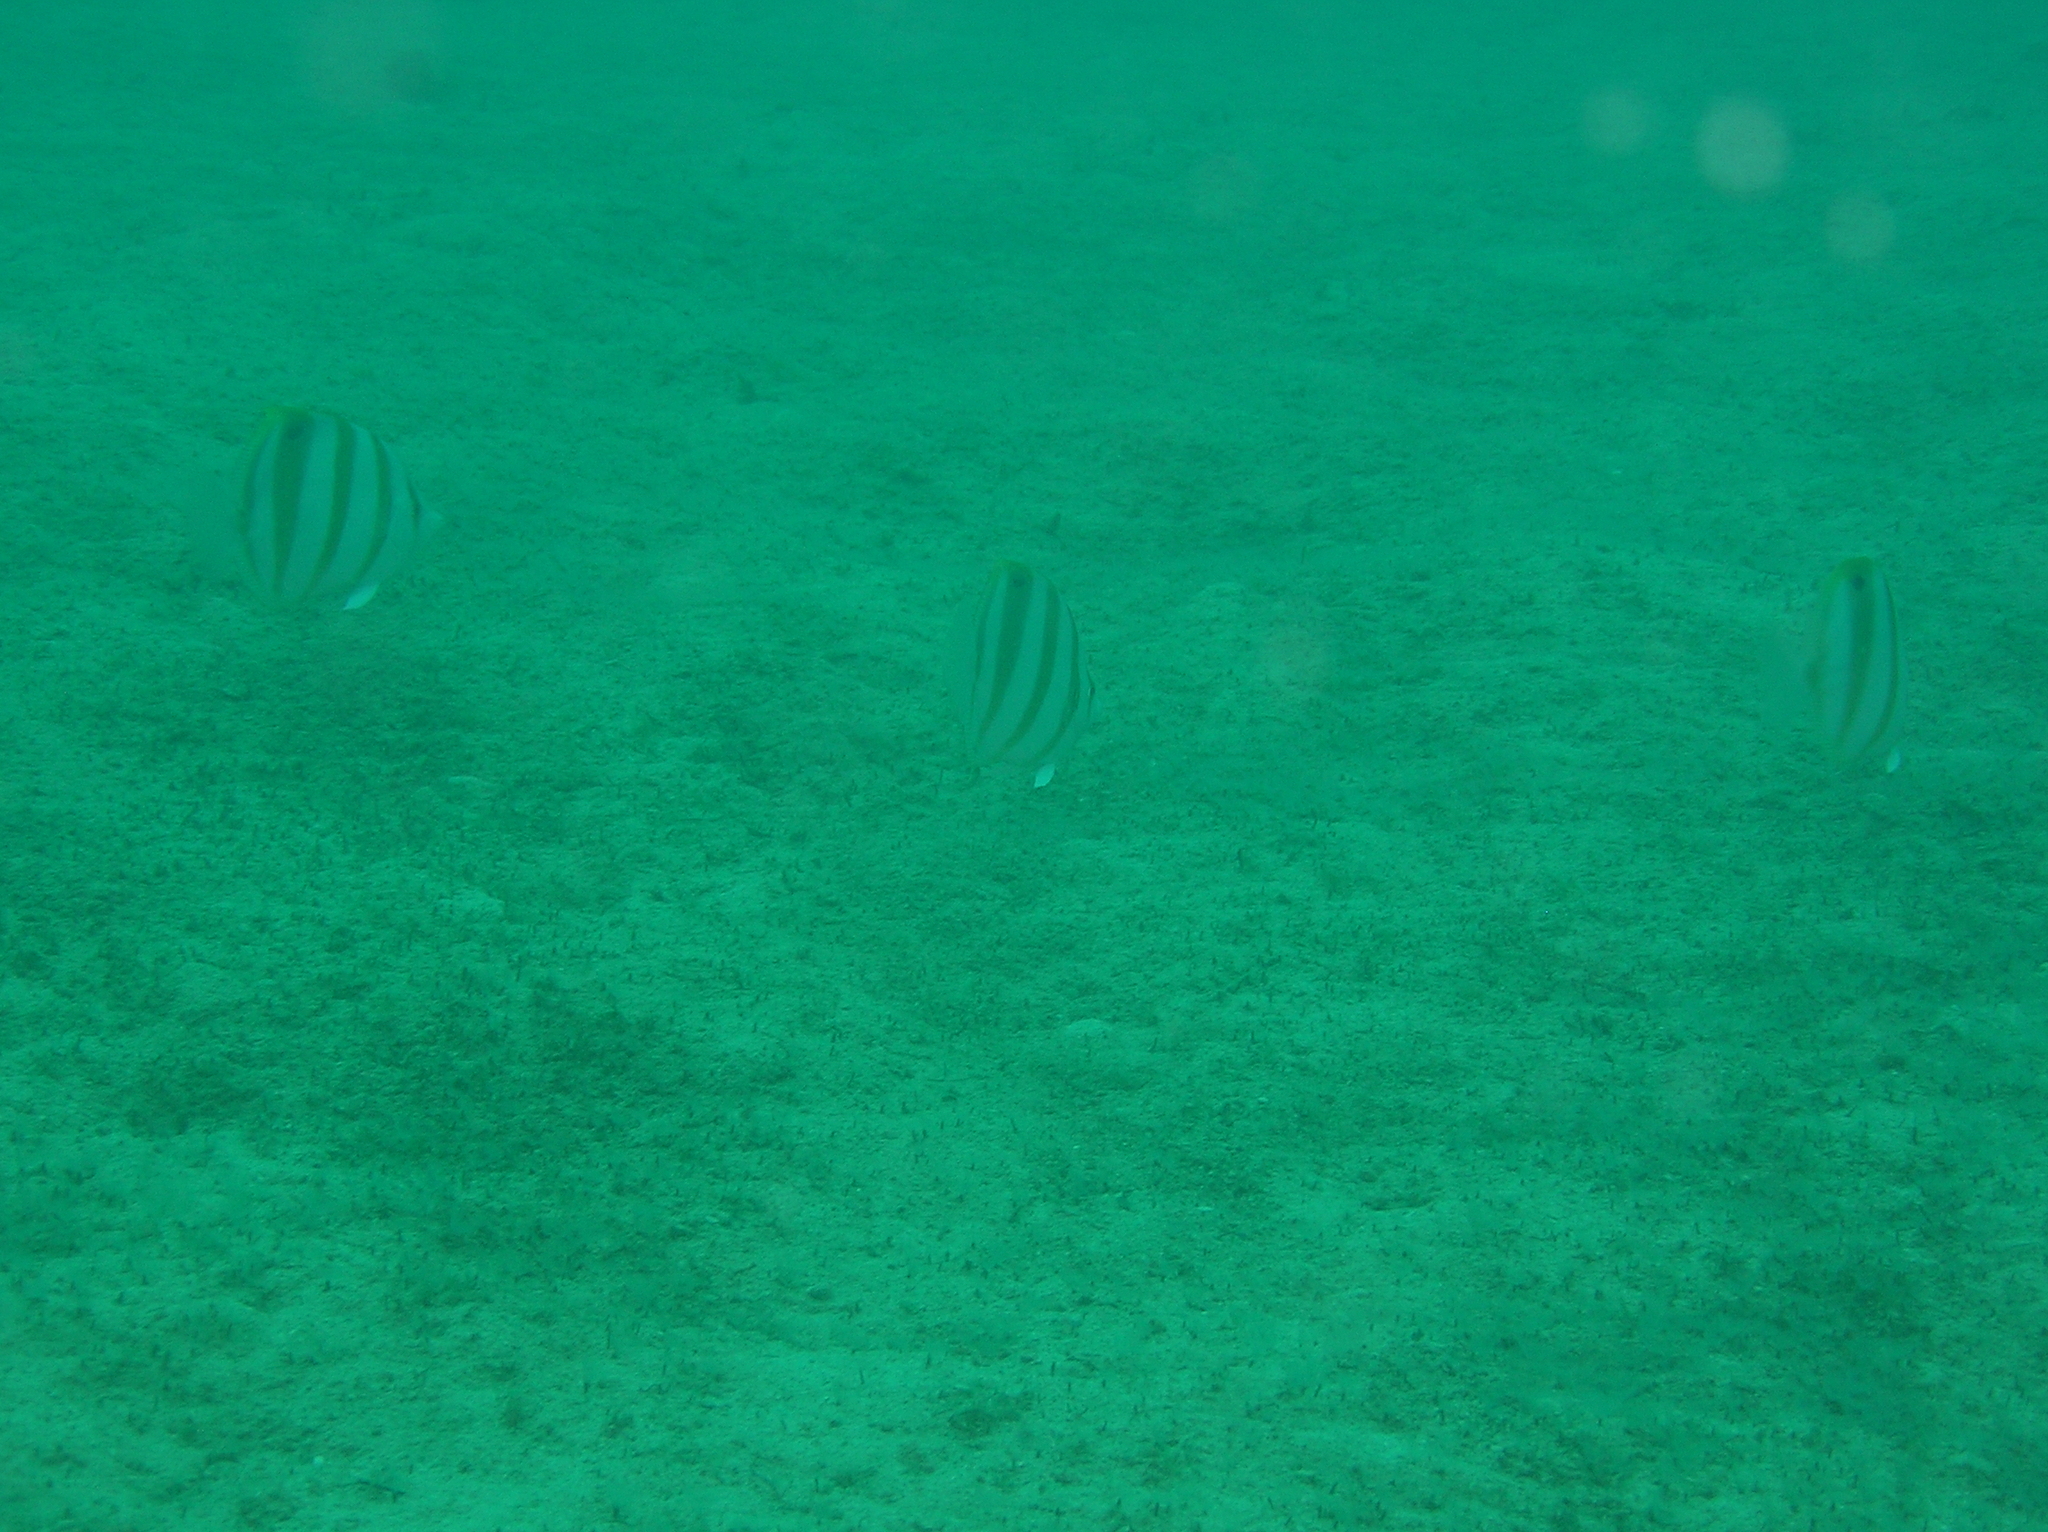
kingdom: Animalia
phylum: Chordata
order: Perciformes
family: Chaetodontidae
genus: Parachaetodon
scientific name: Parachaetodon ocellatus
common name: Ocellate coralfish
